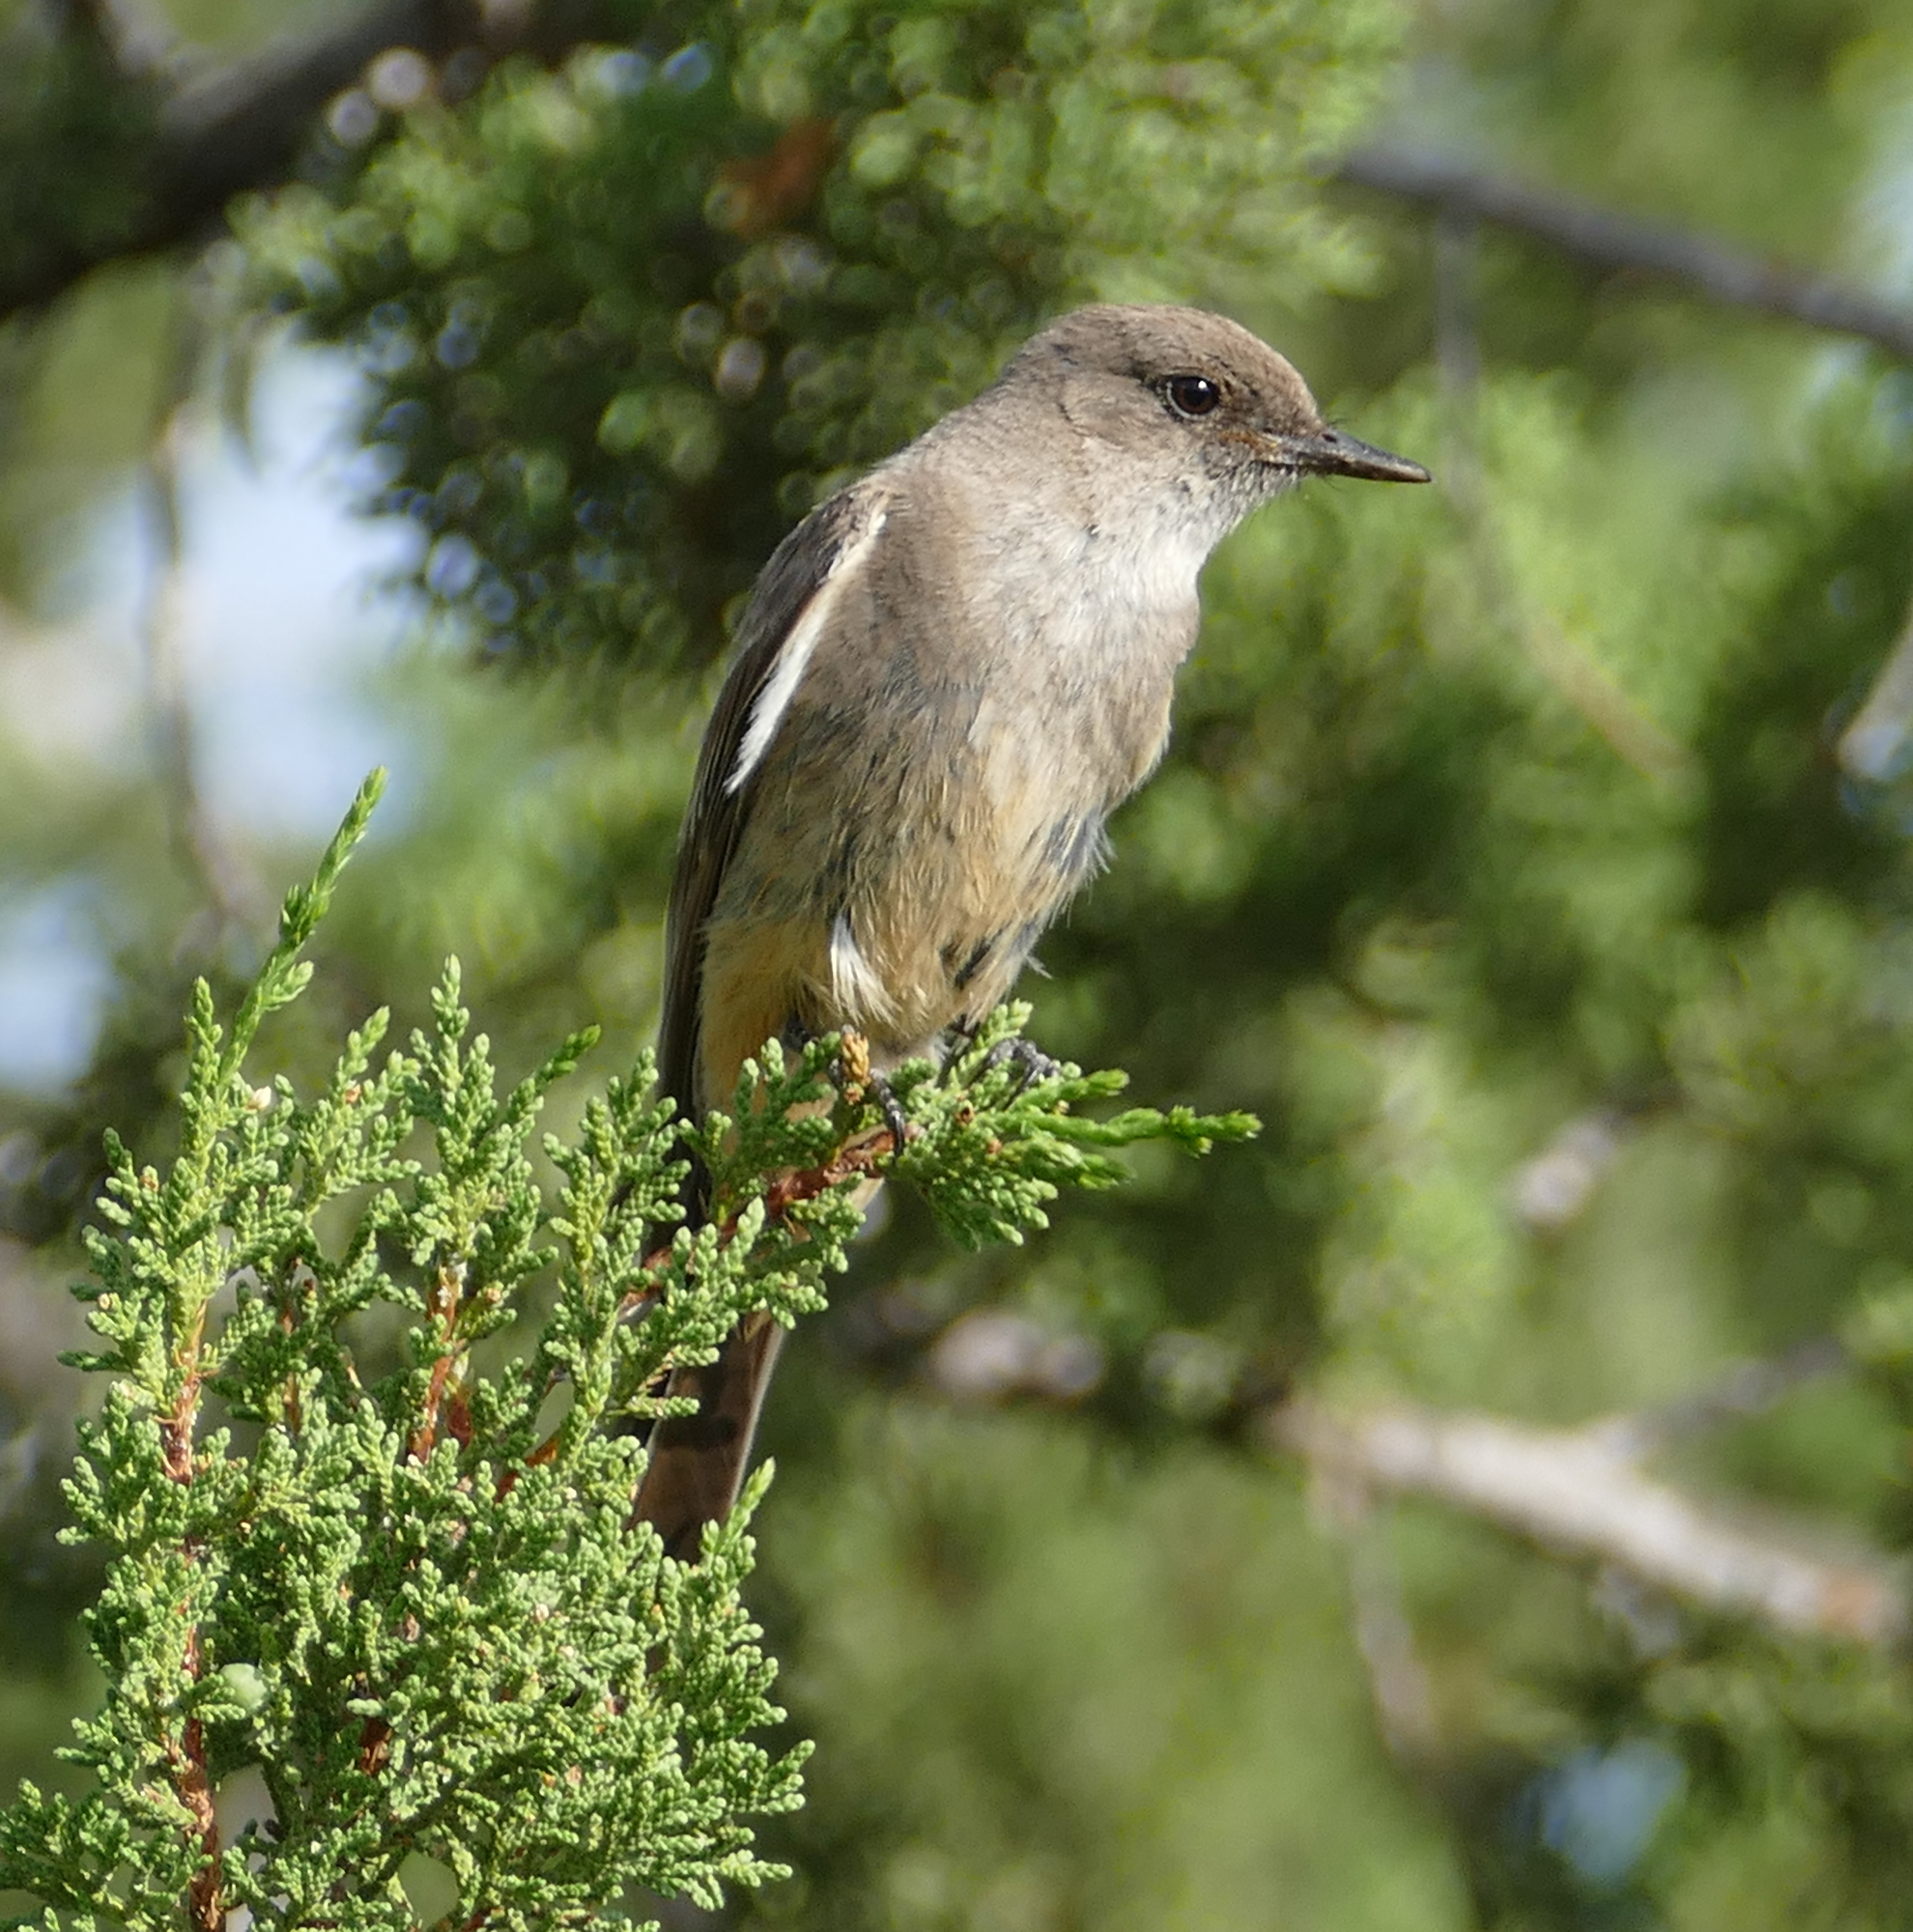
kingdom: Animalia
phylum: Chordata
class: Aves
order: Passeriformes
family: Tyrannidae
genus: Sayornis
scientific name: Sayornis saya
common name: Say's phoebe
